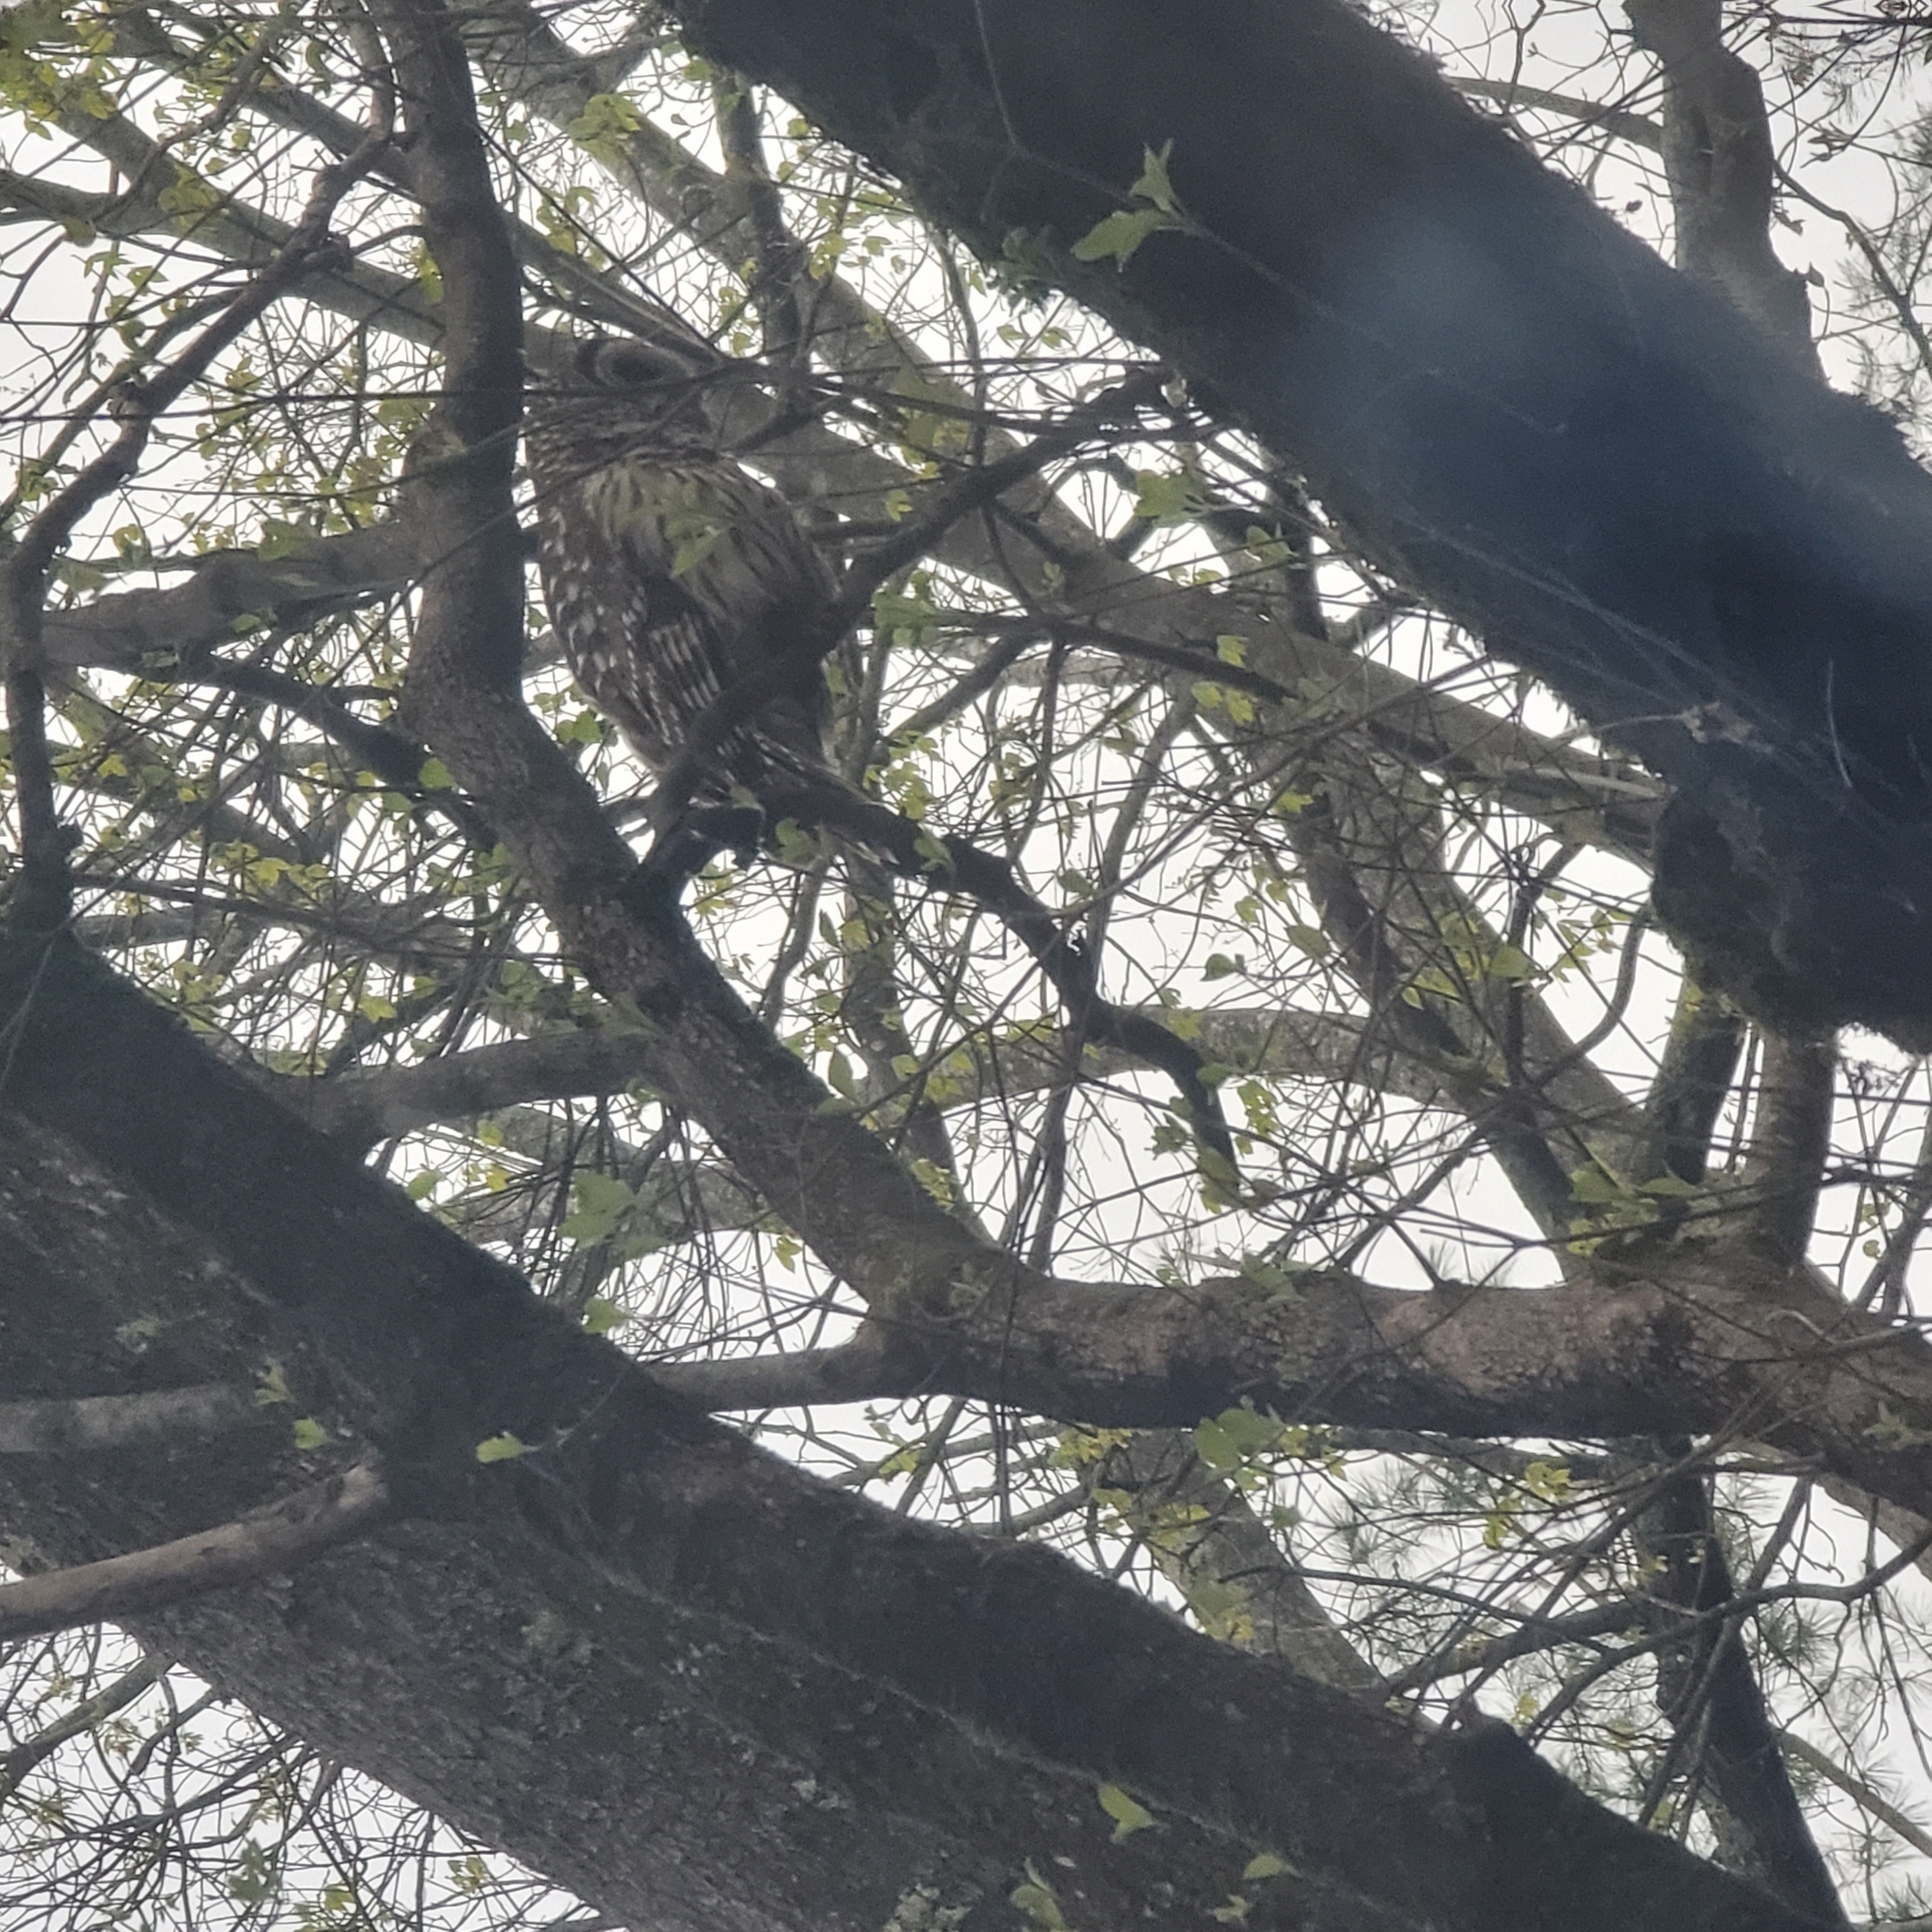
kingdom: Animalia
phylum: Chordata
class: Aves
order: Strigiformes
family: Strigidae
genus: Strix
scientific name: Strix varia
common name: Barred owl
